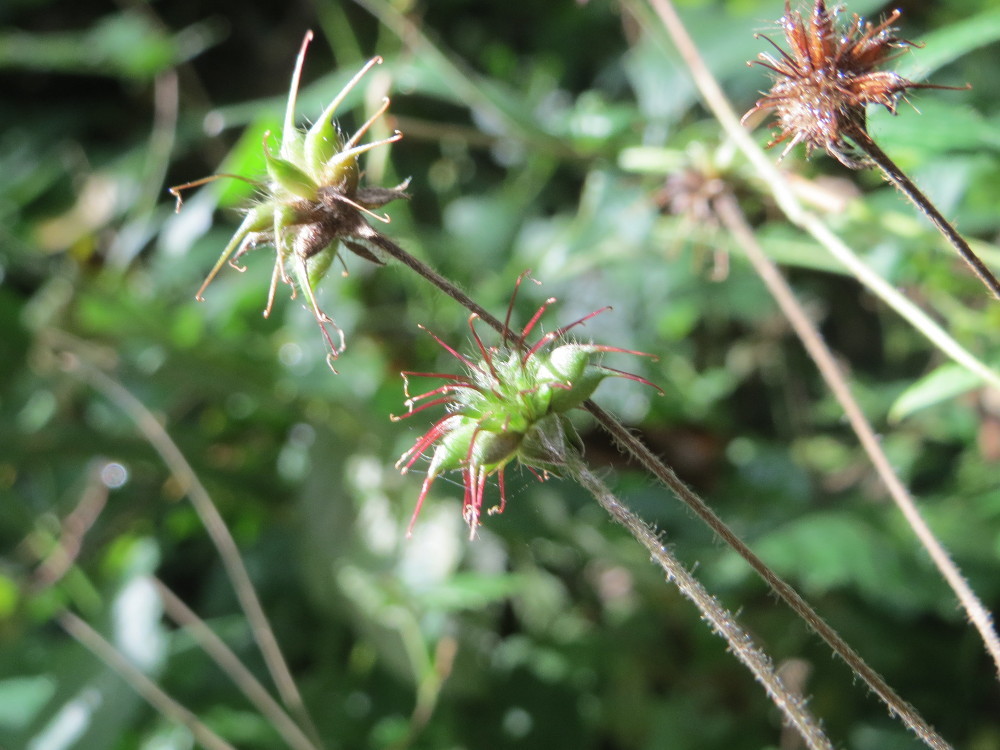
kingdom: Plantae
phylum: Tracheophyta
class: Magnoliopsida
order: Rosales
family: Rosaceae
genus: Geum
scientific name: Geum urbanum
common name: Wood avens
